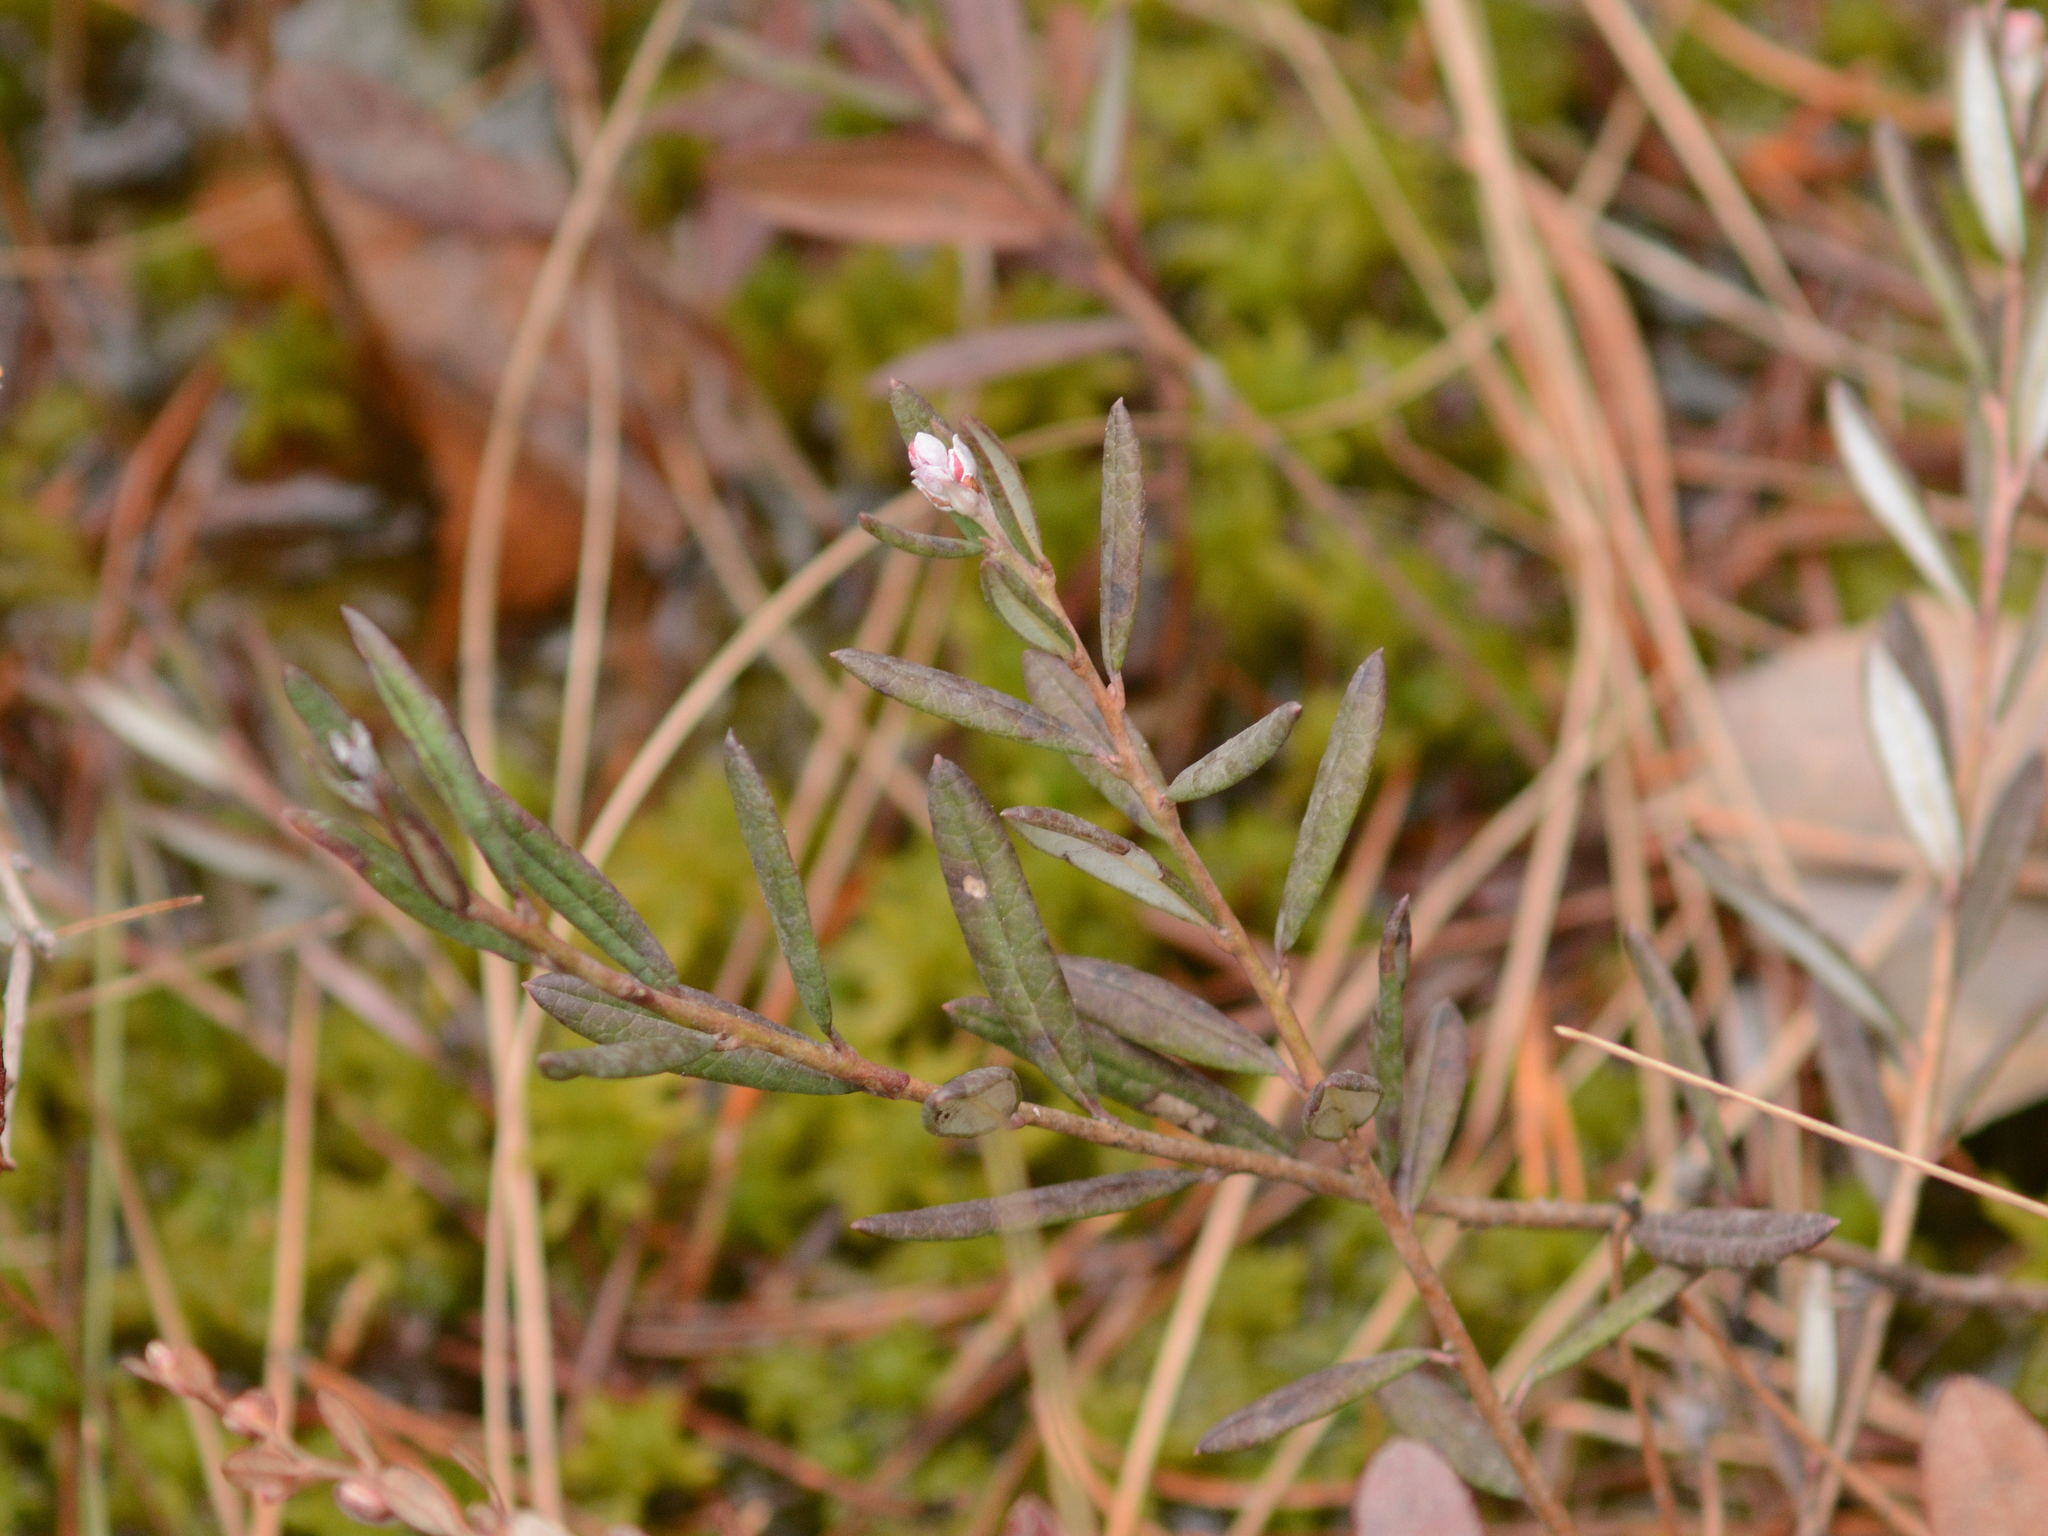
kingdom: Plantae
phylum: Tracheophyta
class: Magnoliopsida
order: Ericales
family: Ericaceae
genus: Andromeda
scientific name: Andromeda polifolia
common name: Bog-rosemary
